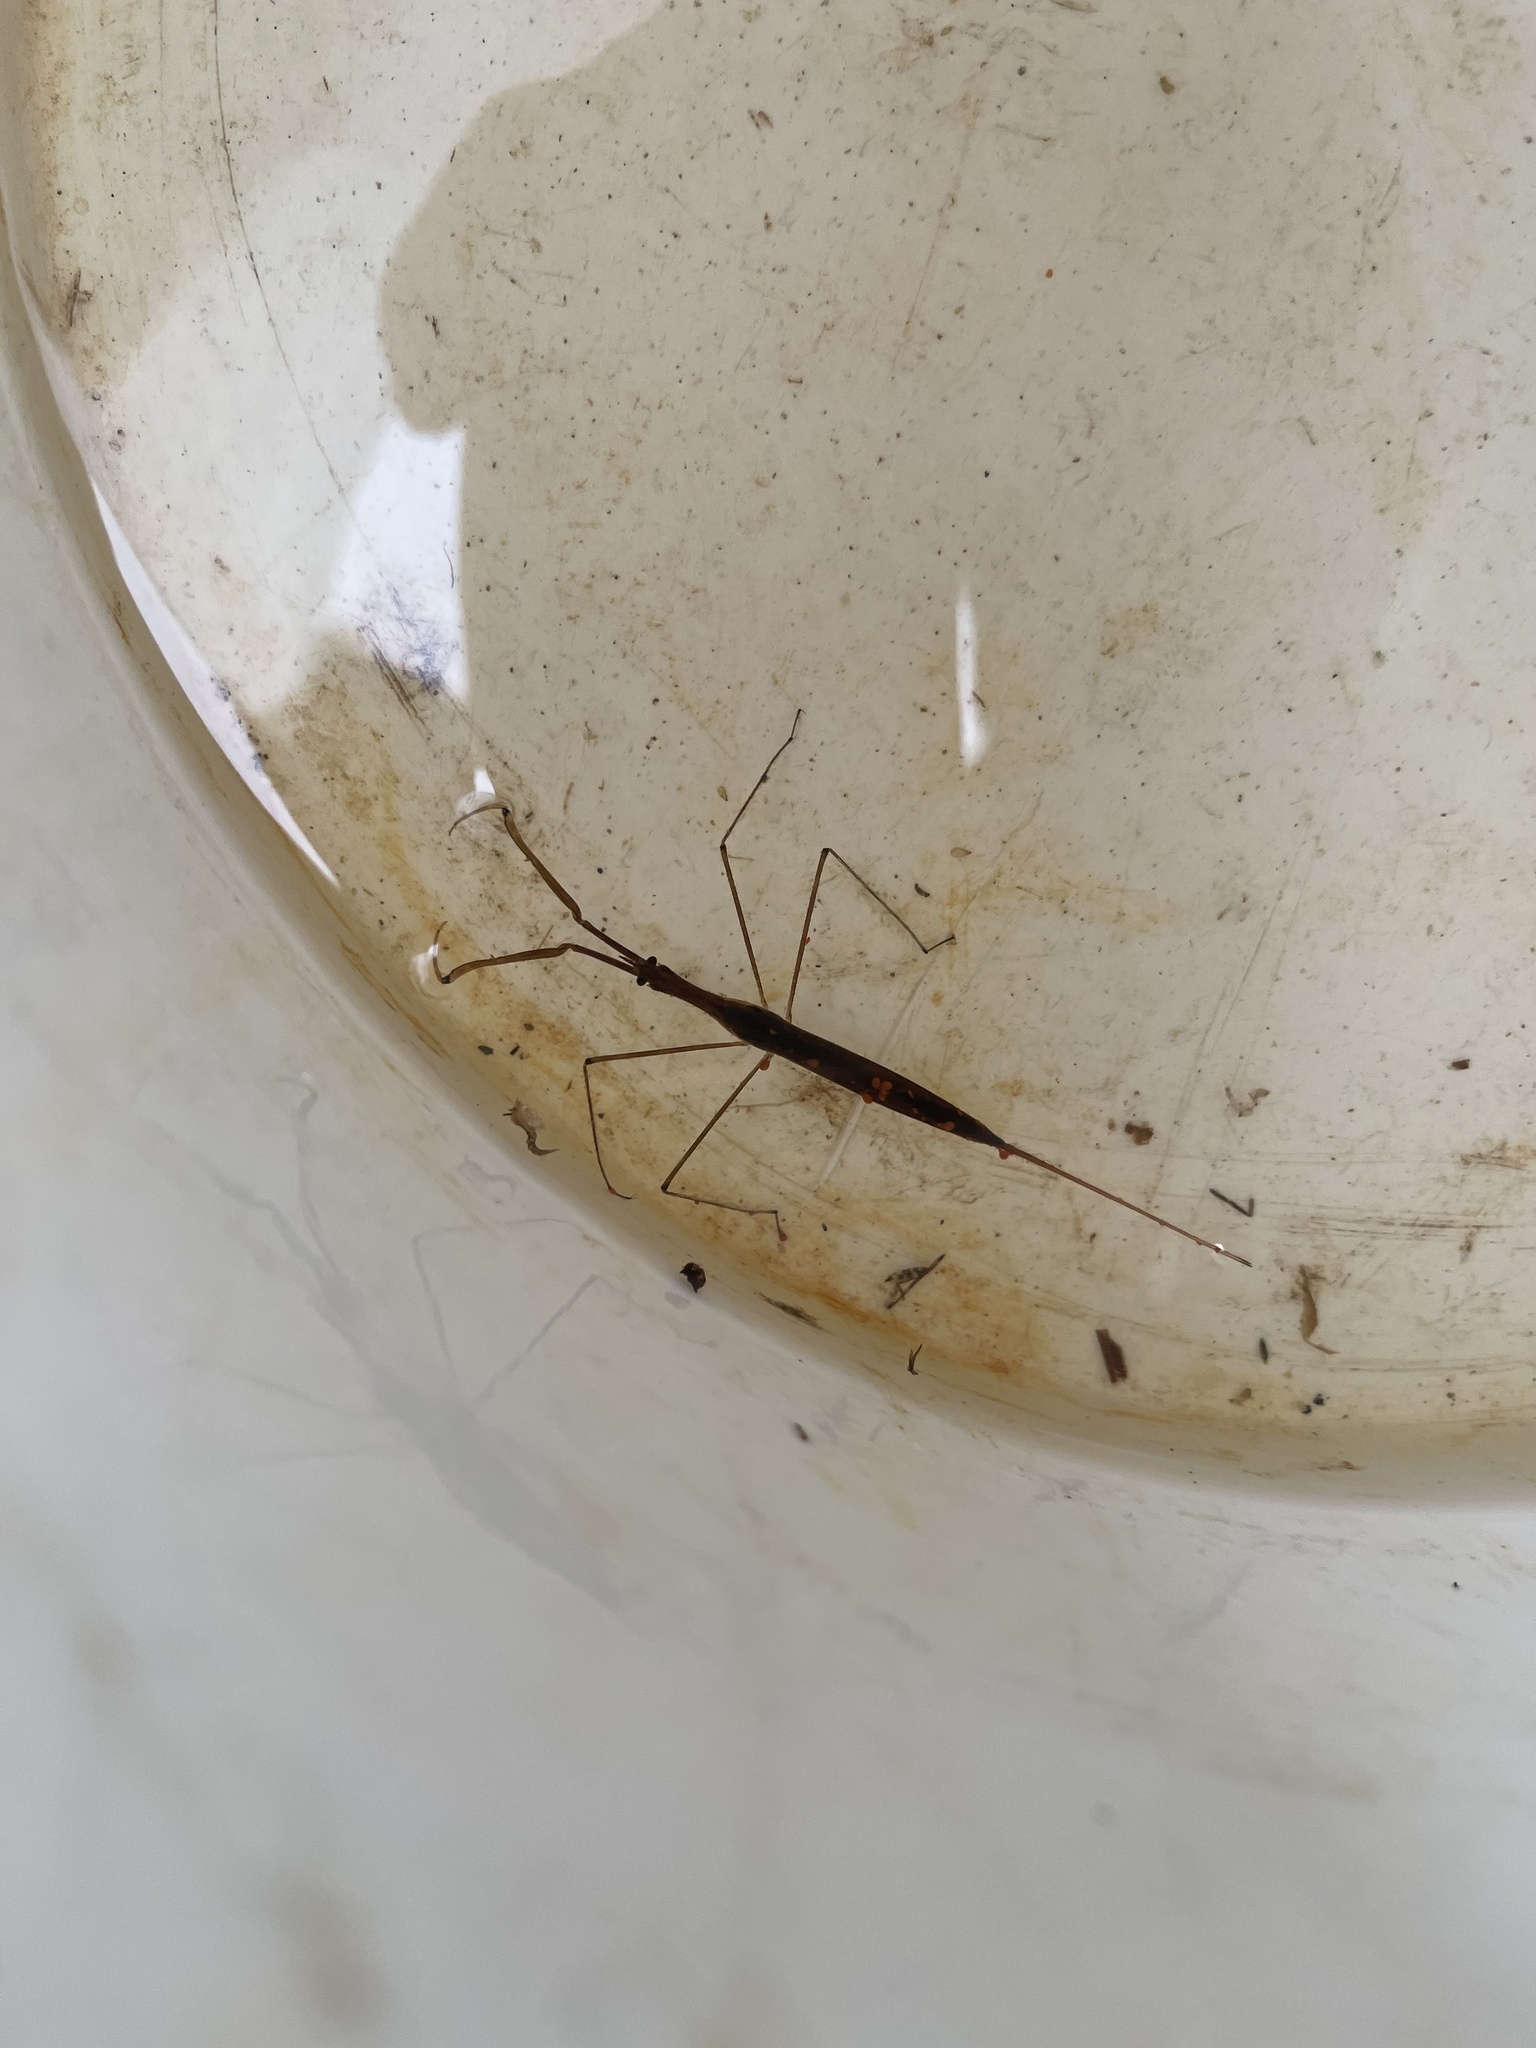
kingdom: Animalia
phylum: Arthropoda
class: Insecta
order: Hemiptera
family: Nepidae
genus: Ranatra
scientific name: Ranatra fusca
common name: Brown waterscorpion
